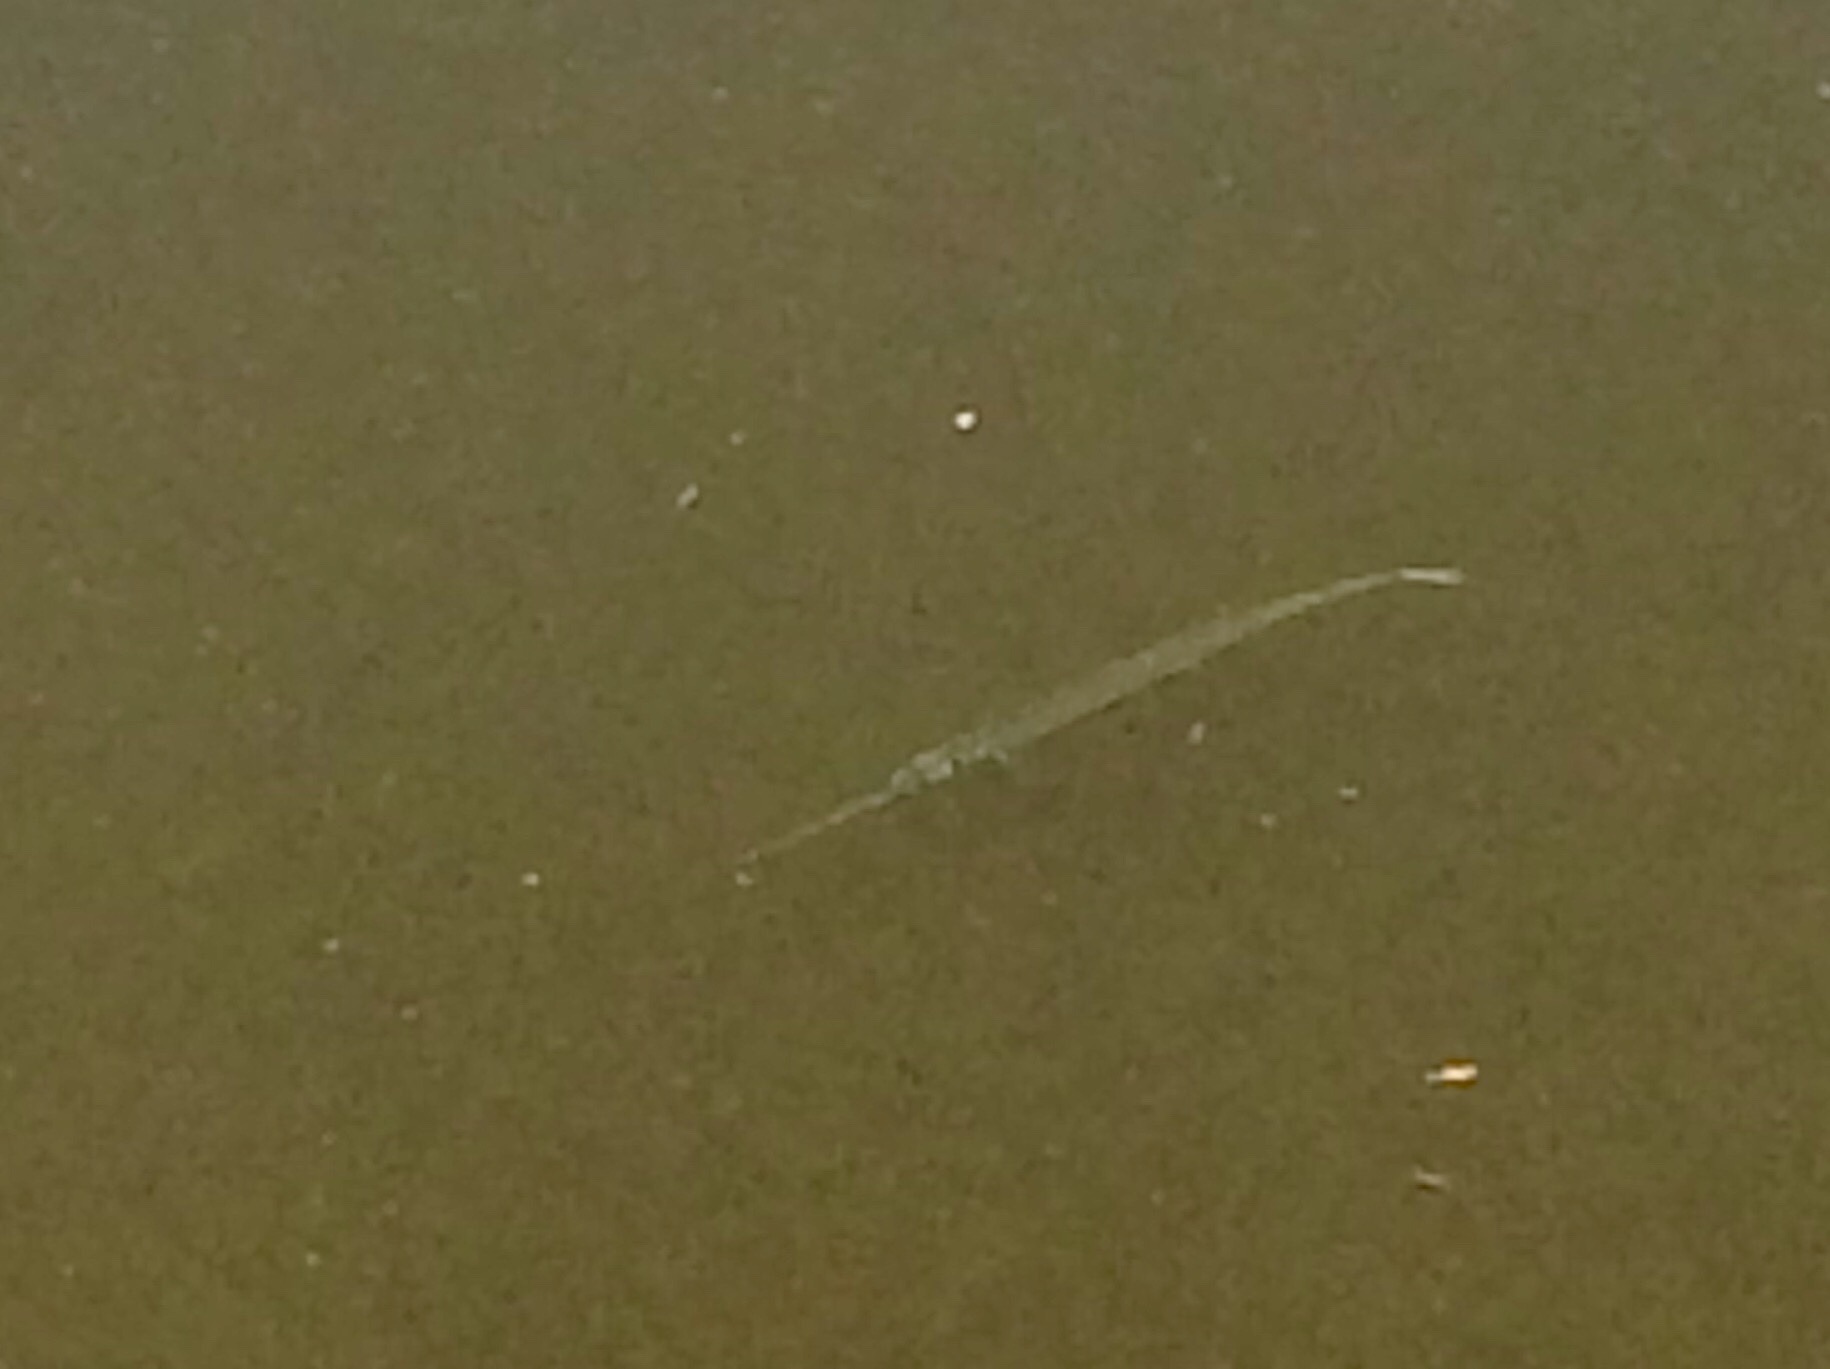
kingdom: Animalia
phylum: Chordata
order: Beloniformes
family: Belonidae
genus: Strongylura
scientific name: Strongylura marina
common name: Atlantic needlefish
